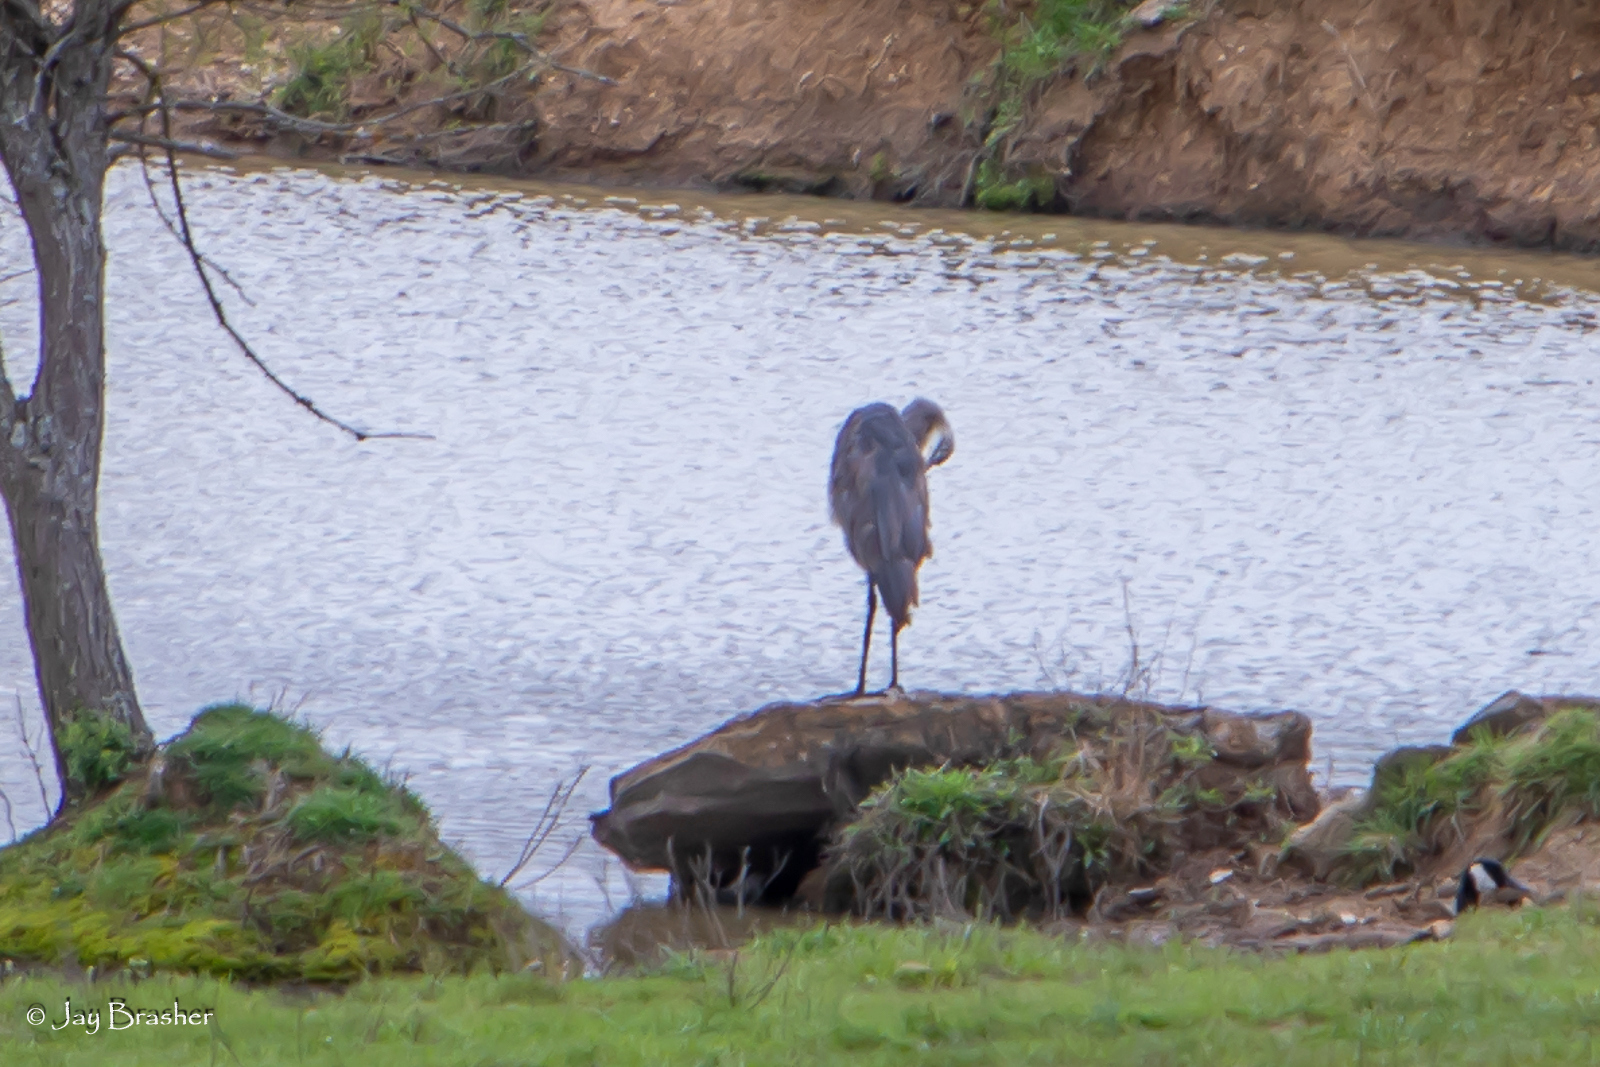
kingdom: Animalia
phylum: Chordata
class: Aves
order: Pelecaniformes
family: Ardeidae
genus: Ardea
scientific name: Ardea herodias
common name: Great blue heron
